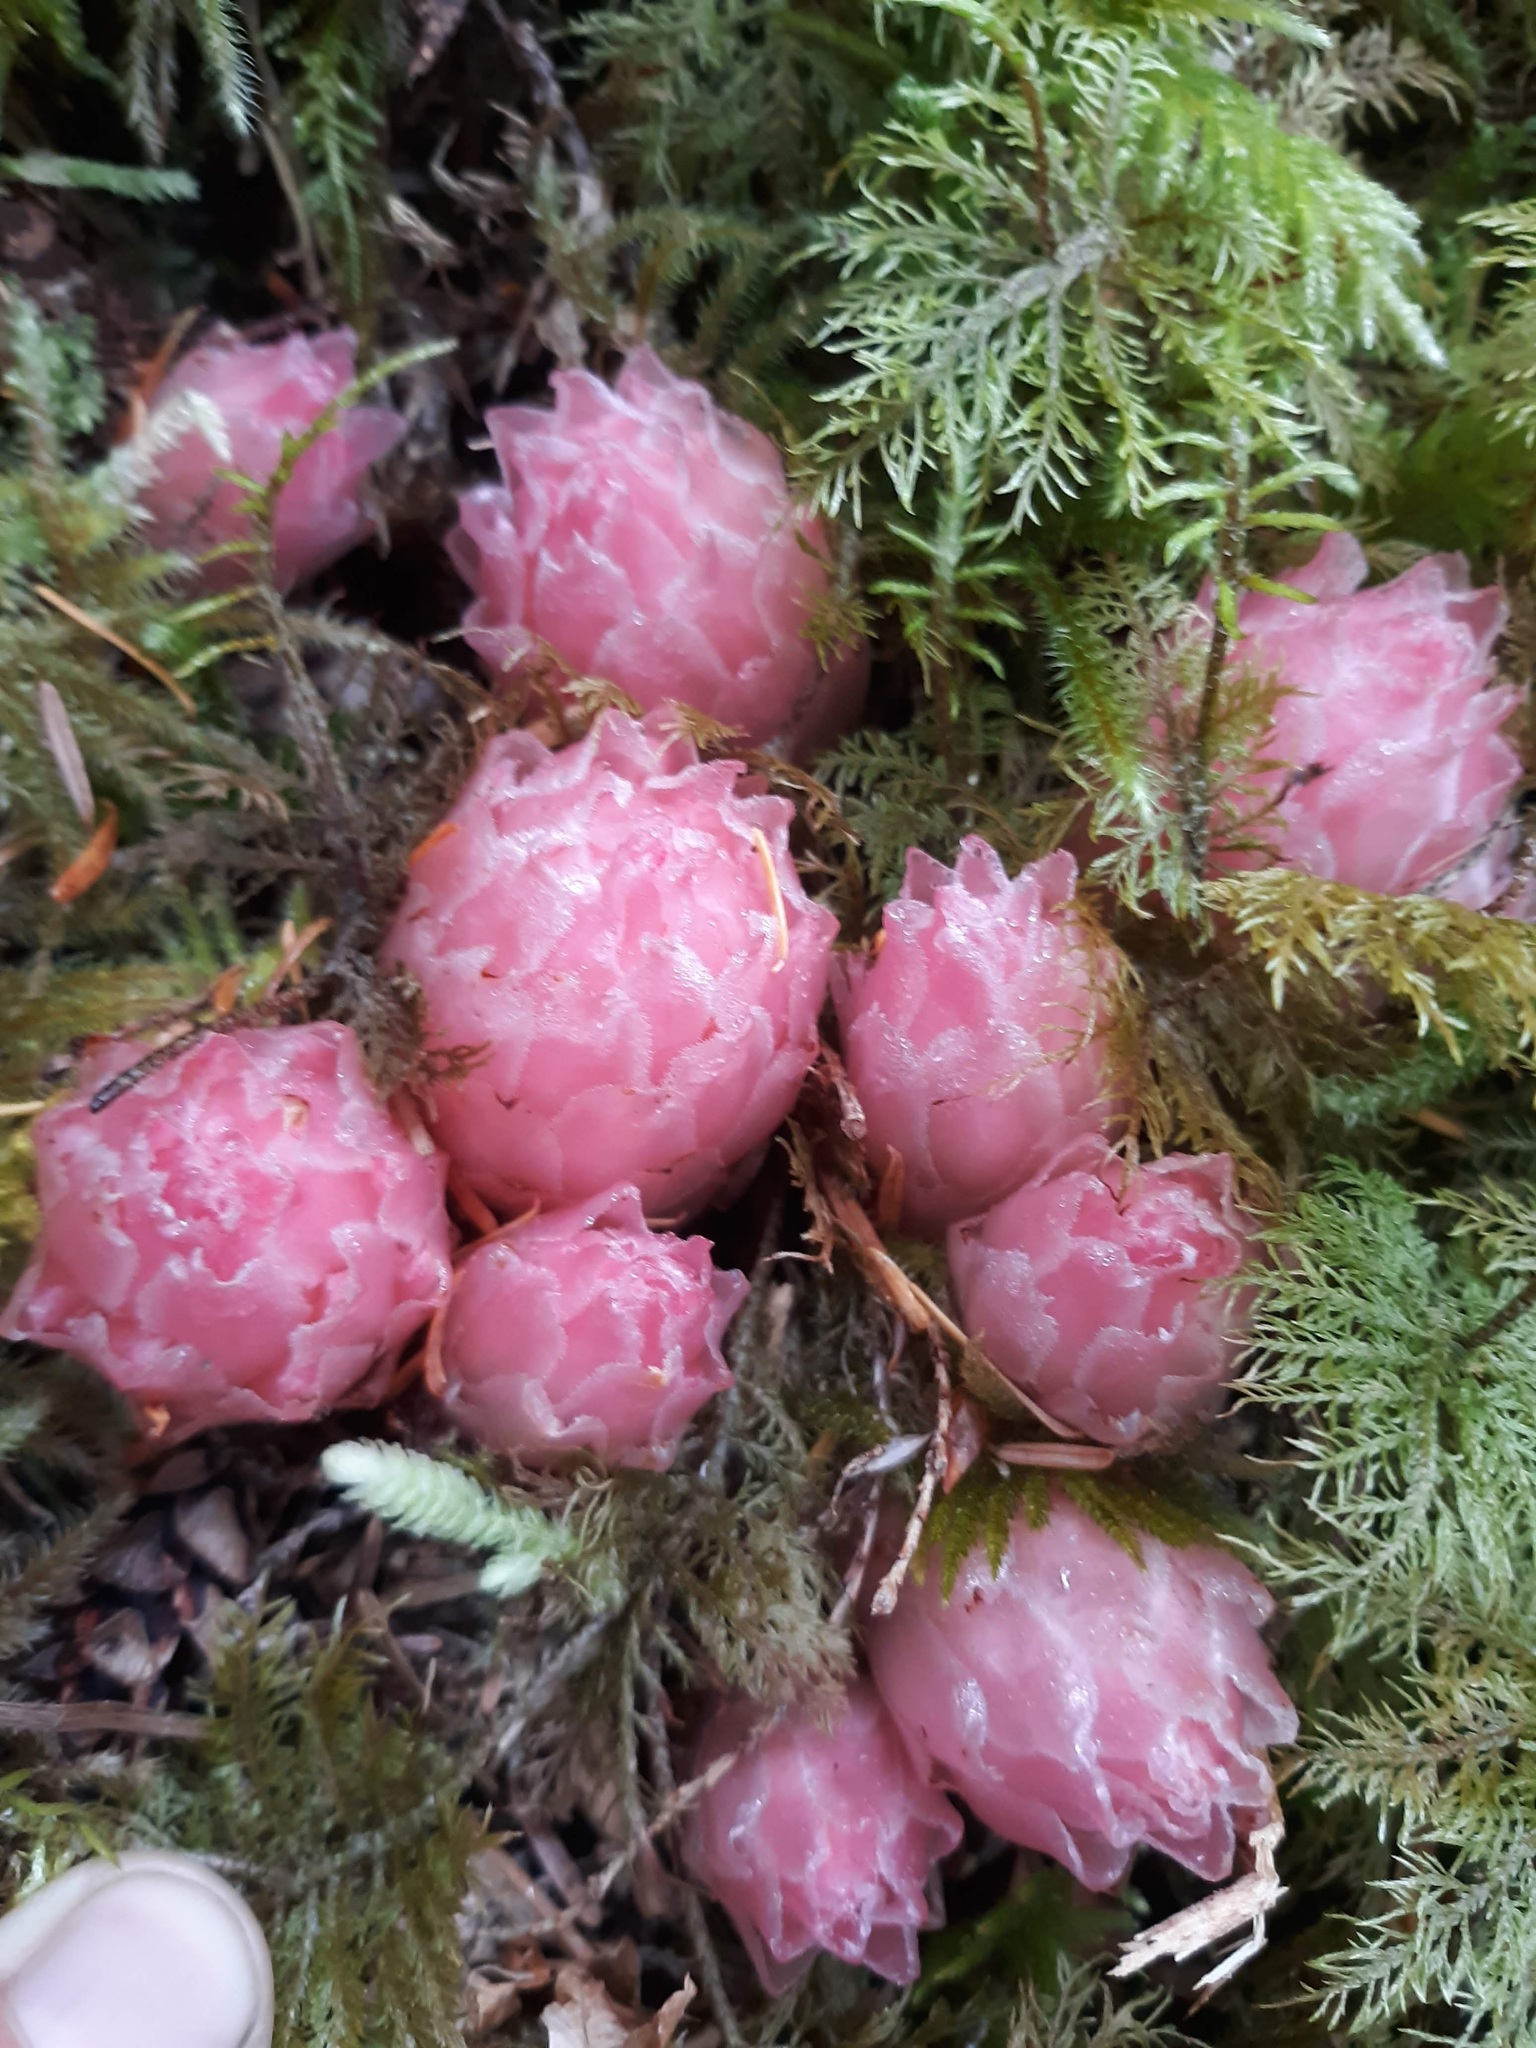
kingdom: Plantae
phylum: Tracheophyta
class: Magnoliopsida
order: Ericales
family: Ericaceae
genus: Hemitomes
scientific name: Hemitomes congestum
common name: Cone plant
